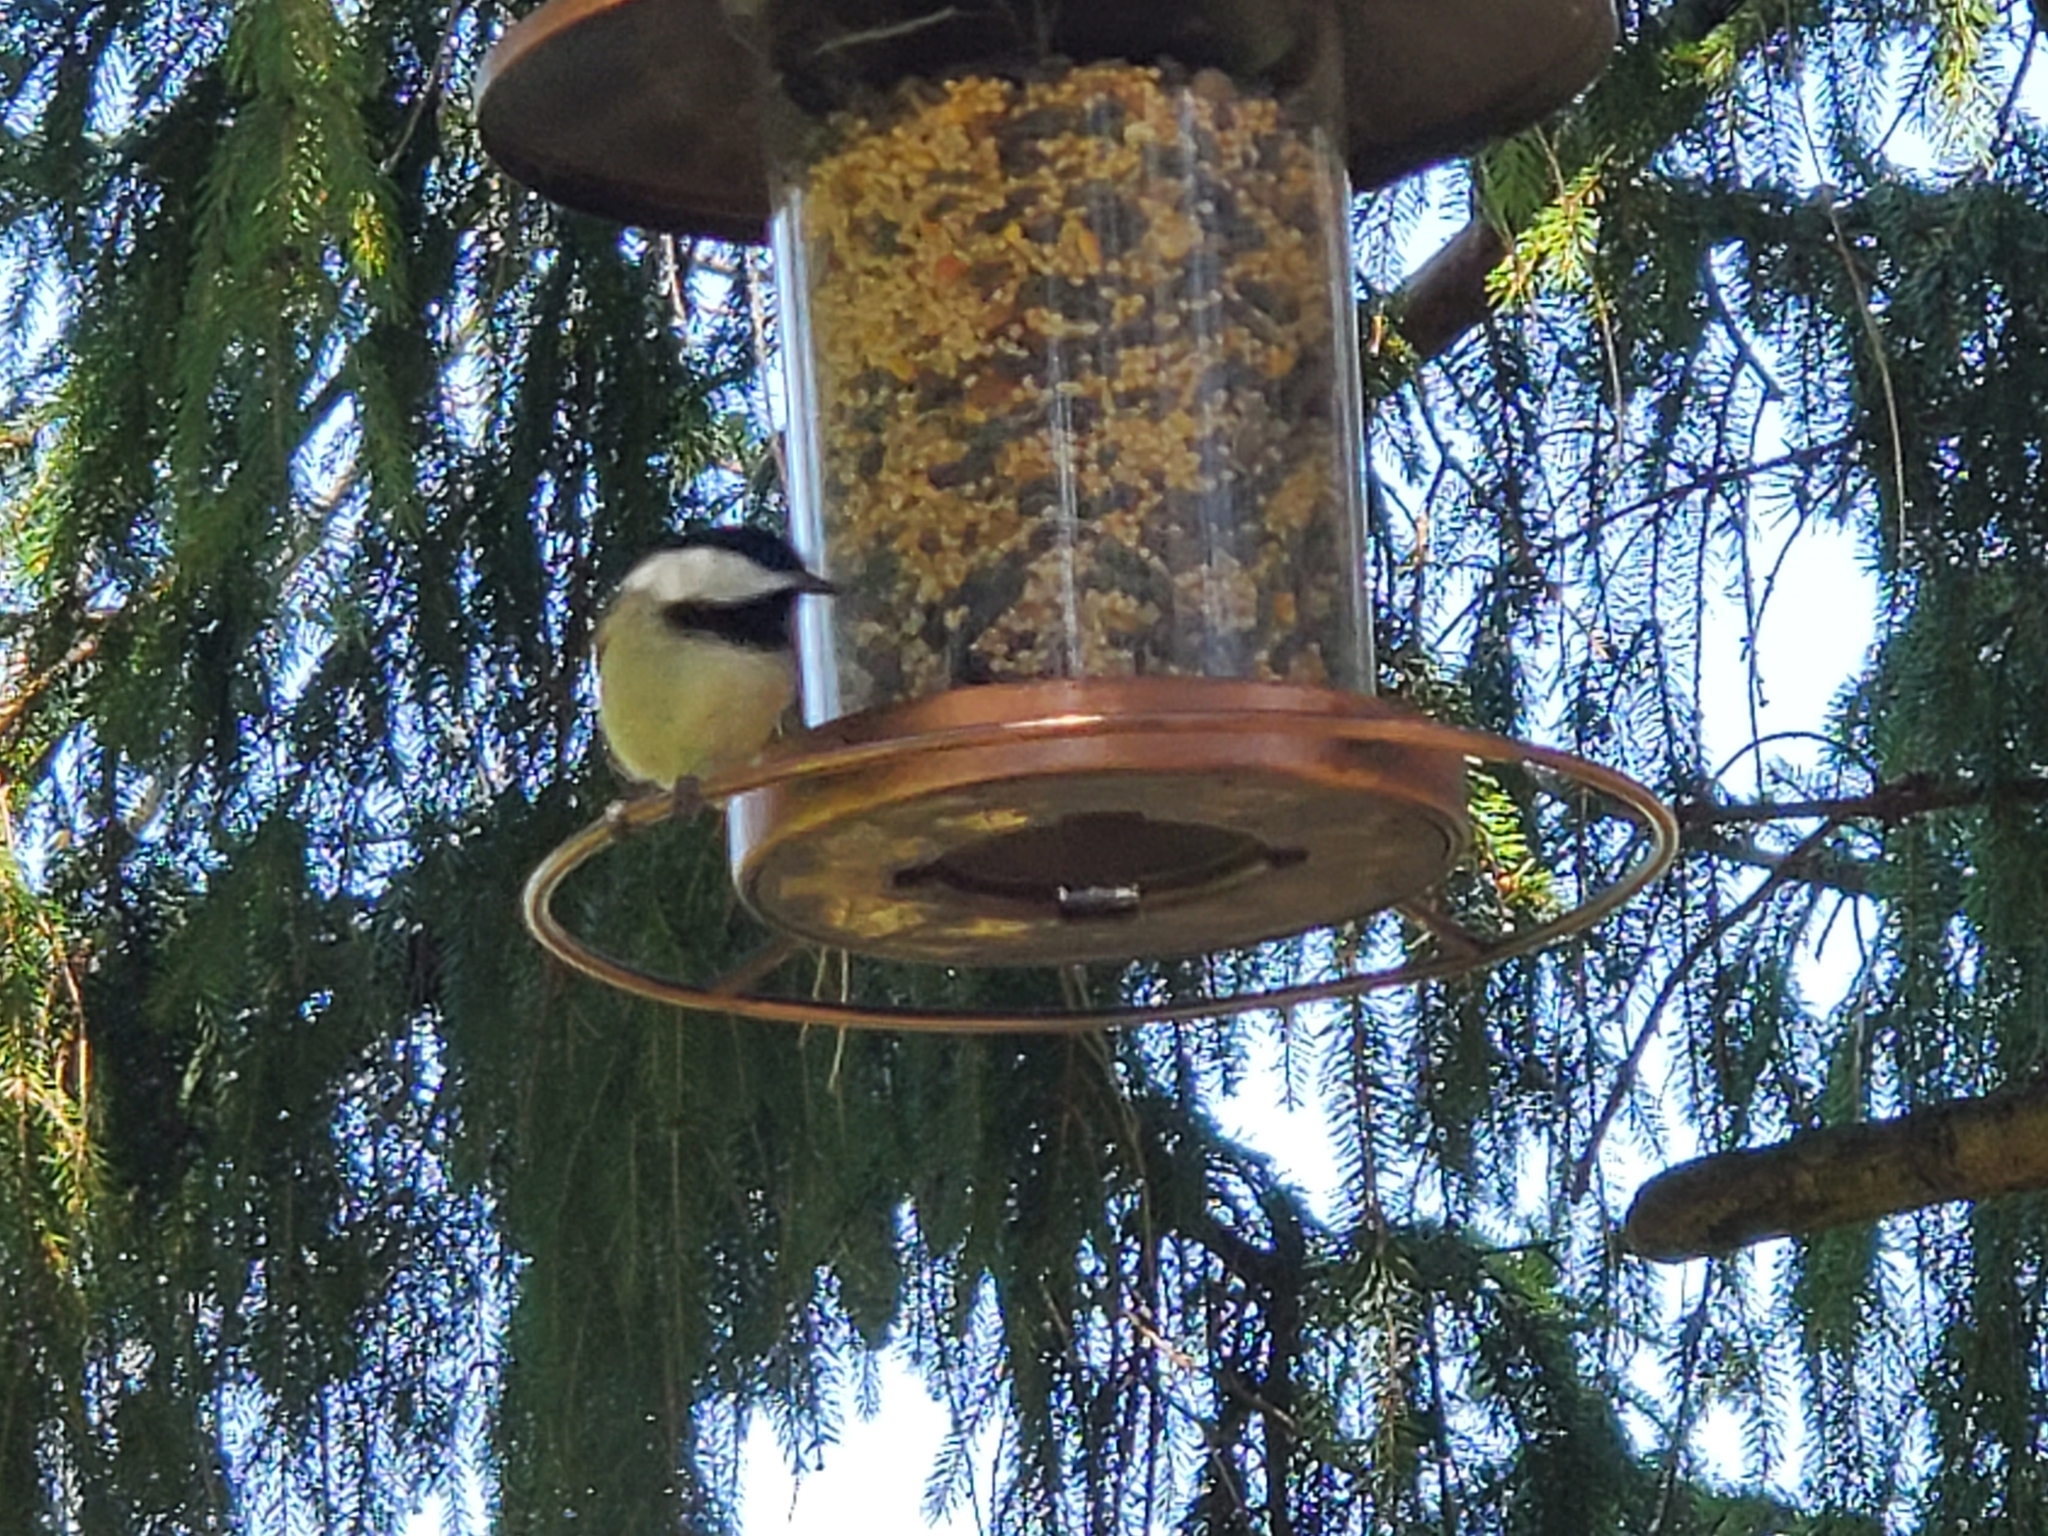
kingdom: Animalia
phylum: Chordata
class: Aves
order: Passeriformes
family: Paridae
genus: Poecile
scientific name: Poecile atricapillus
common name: Black-capped chickadee
